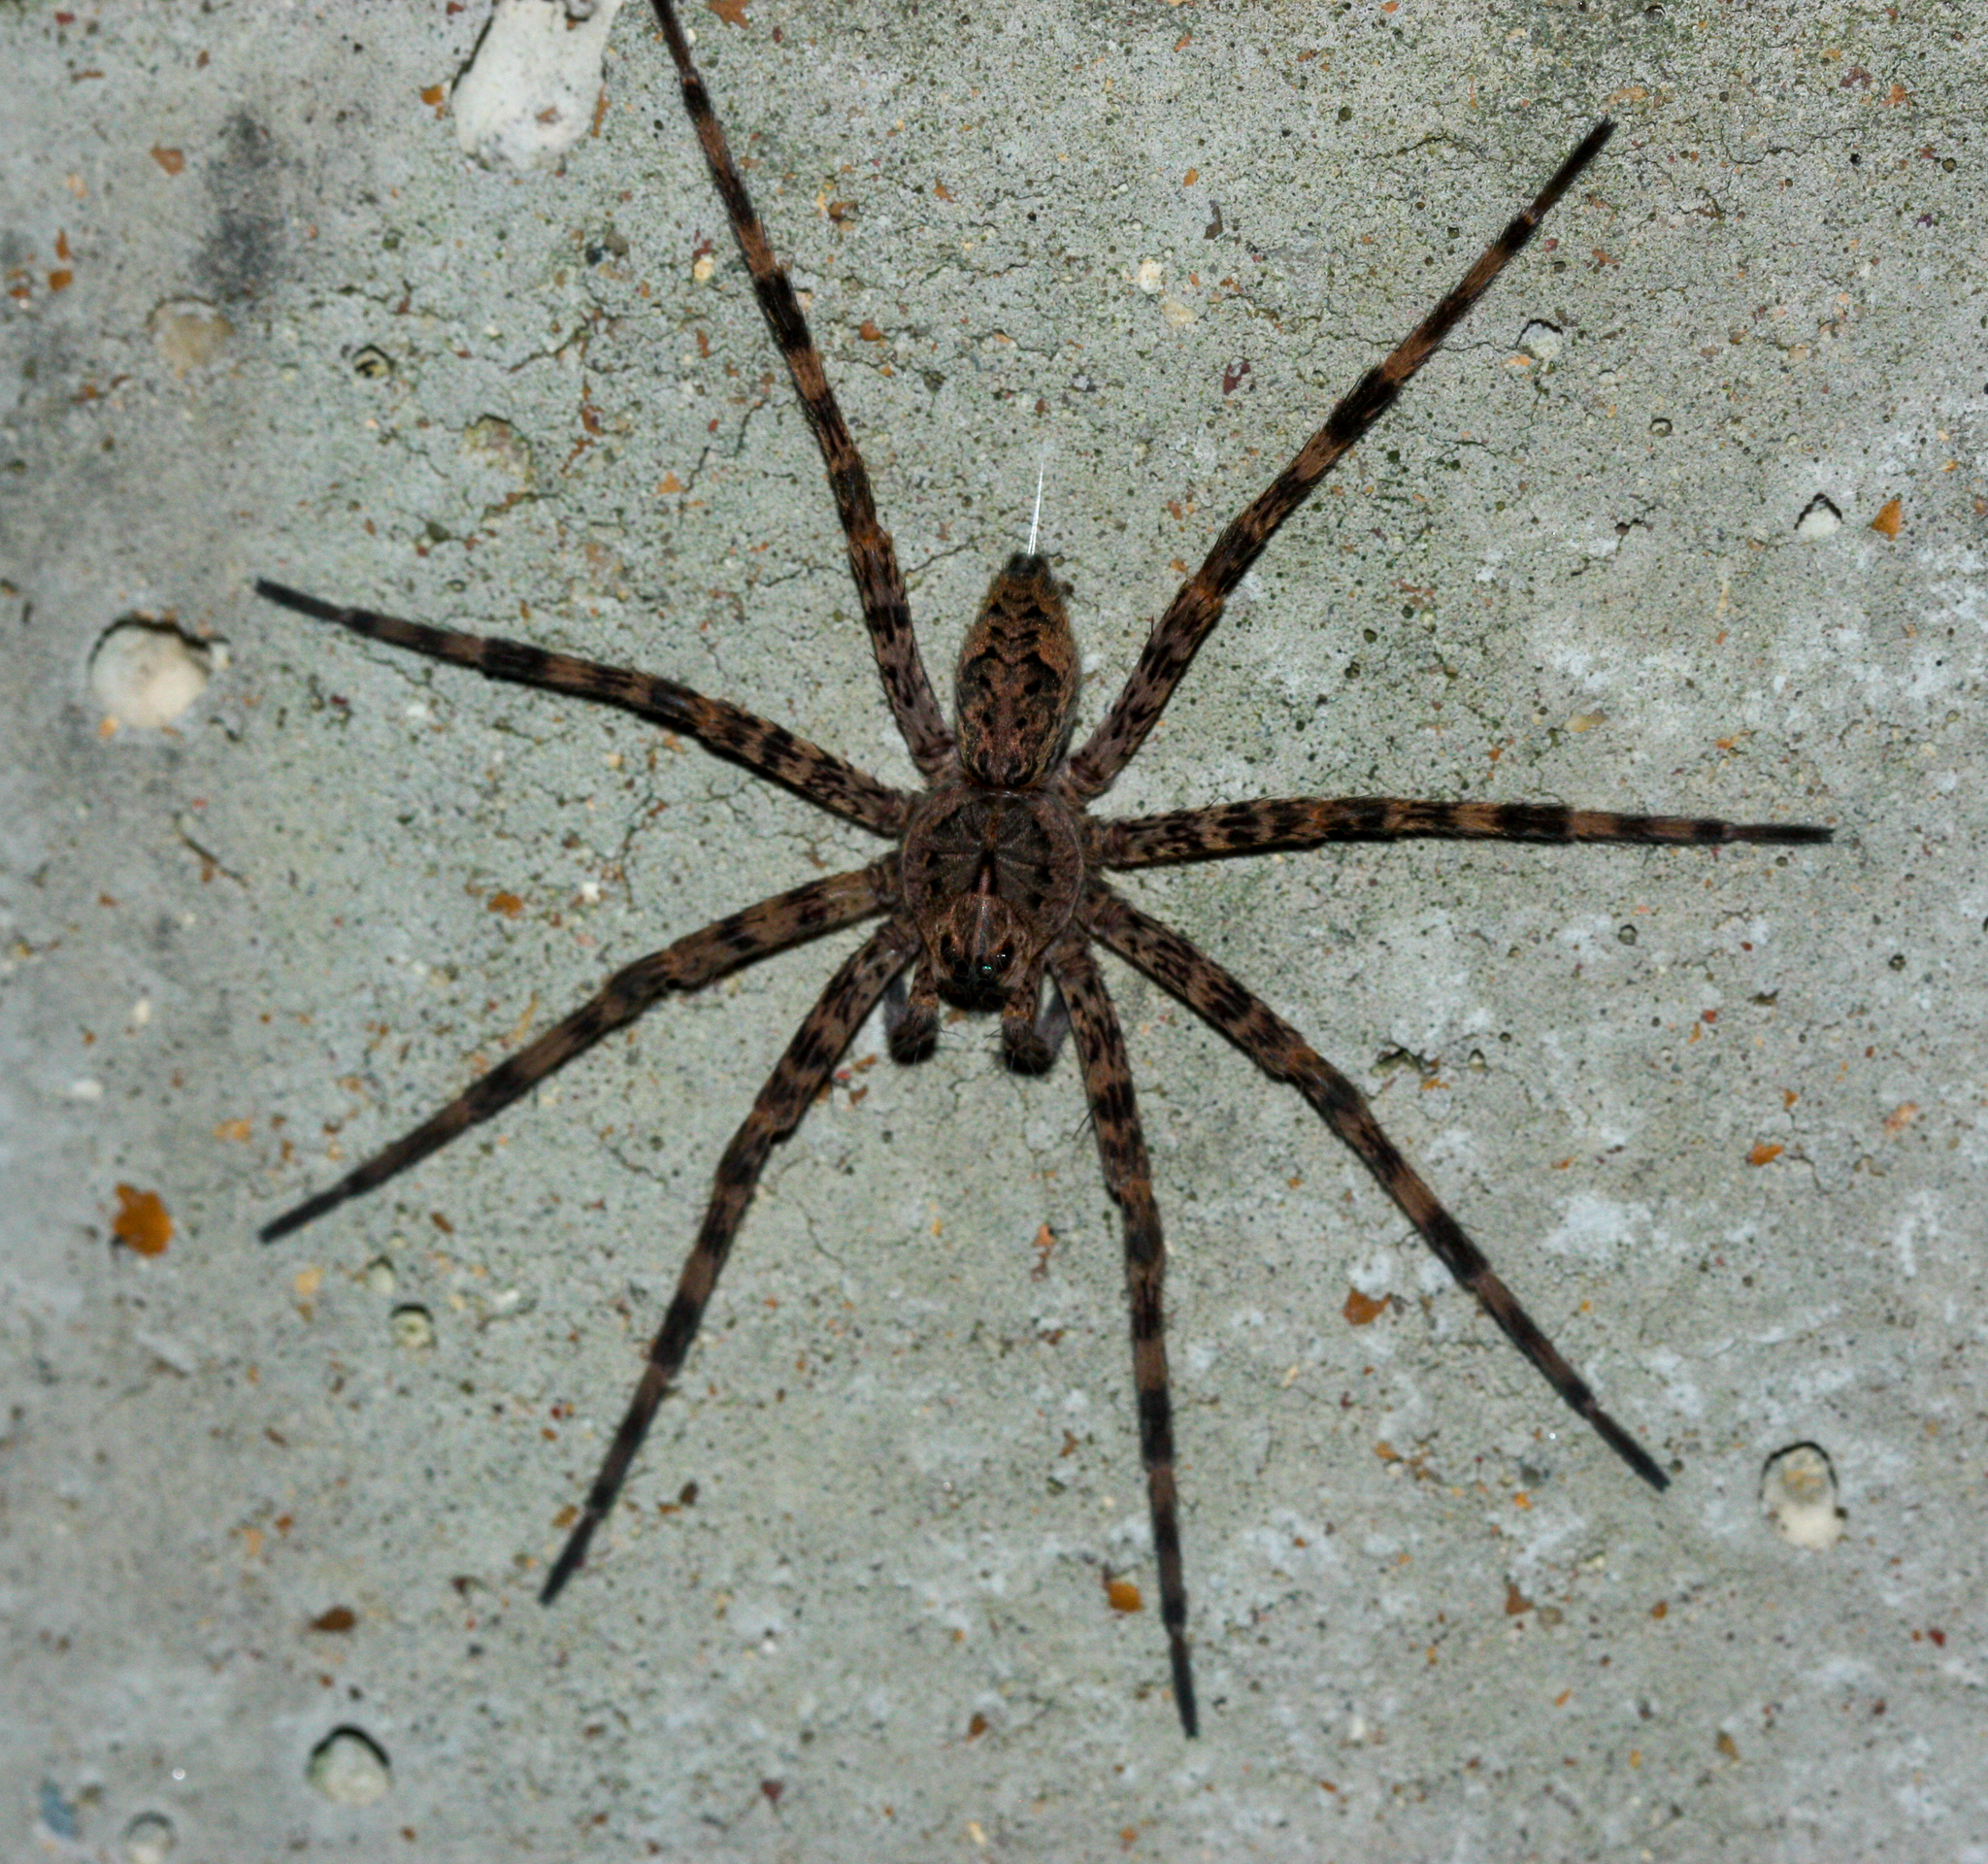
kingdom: Animalia
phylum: Arthropoda
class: Arachnida
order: Araneae
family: Pisauridae
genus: Dolomedes
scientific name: Dolomedes tenebrosus
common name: Dark fishing spider
